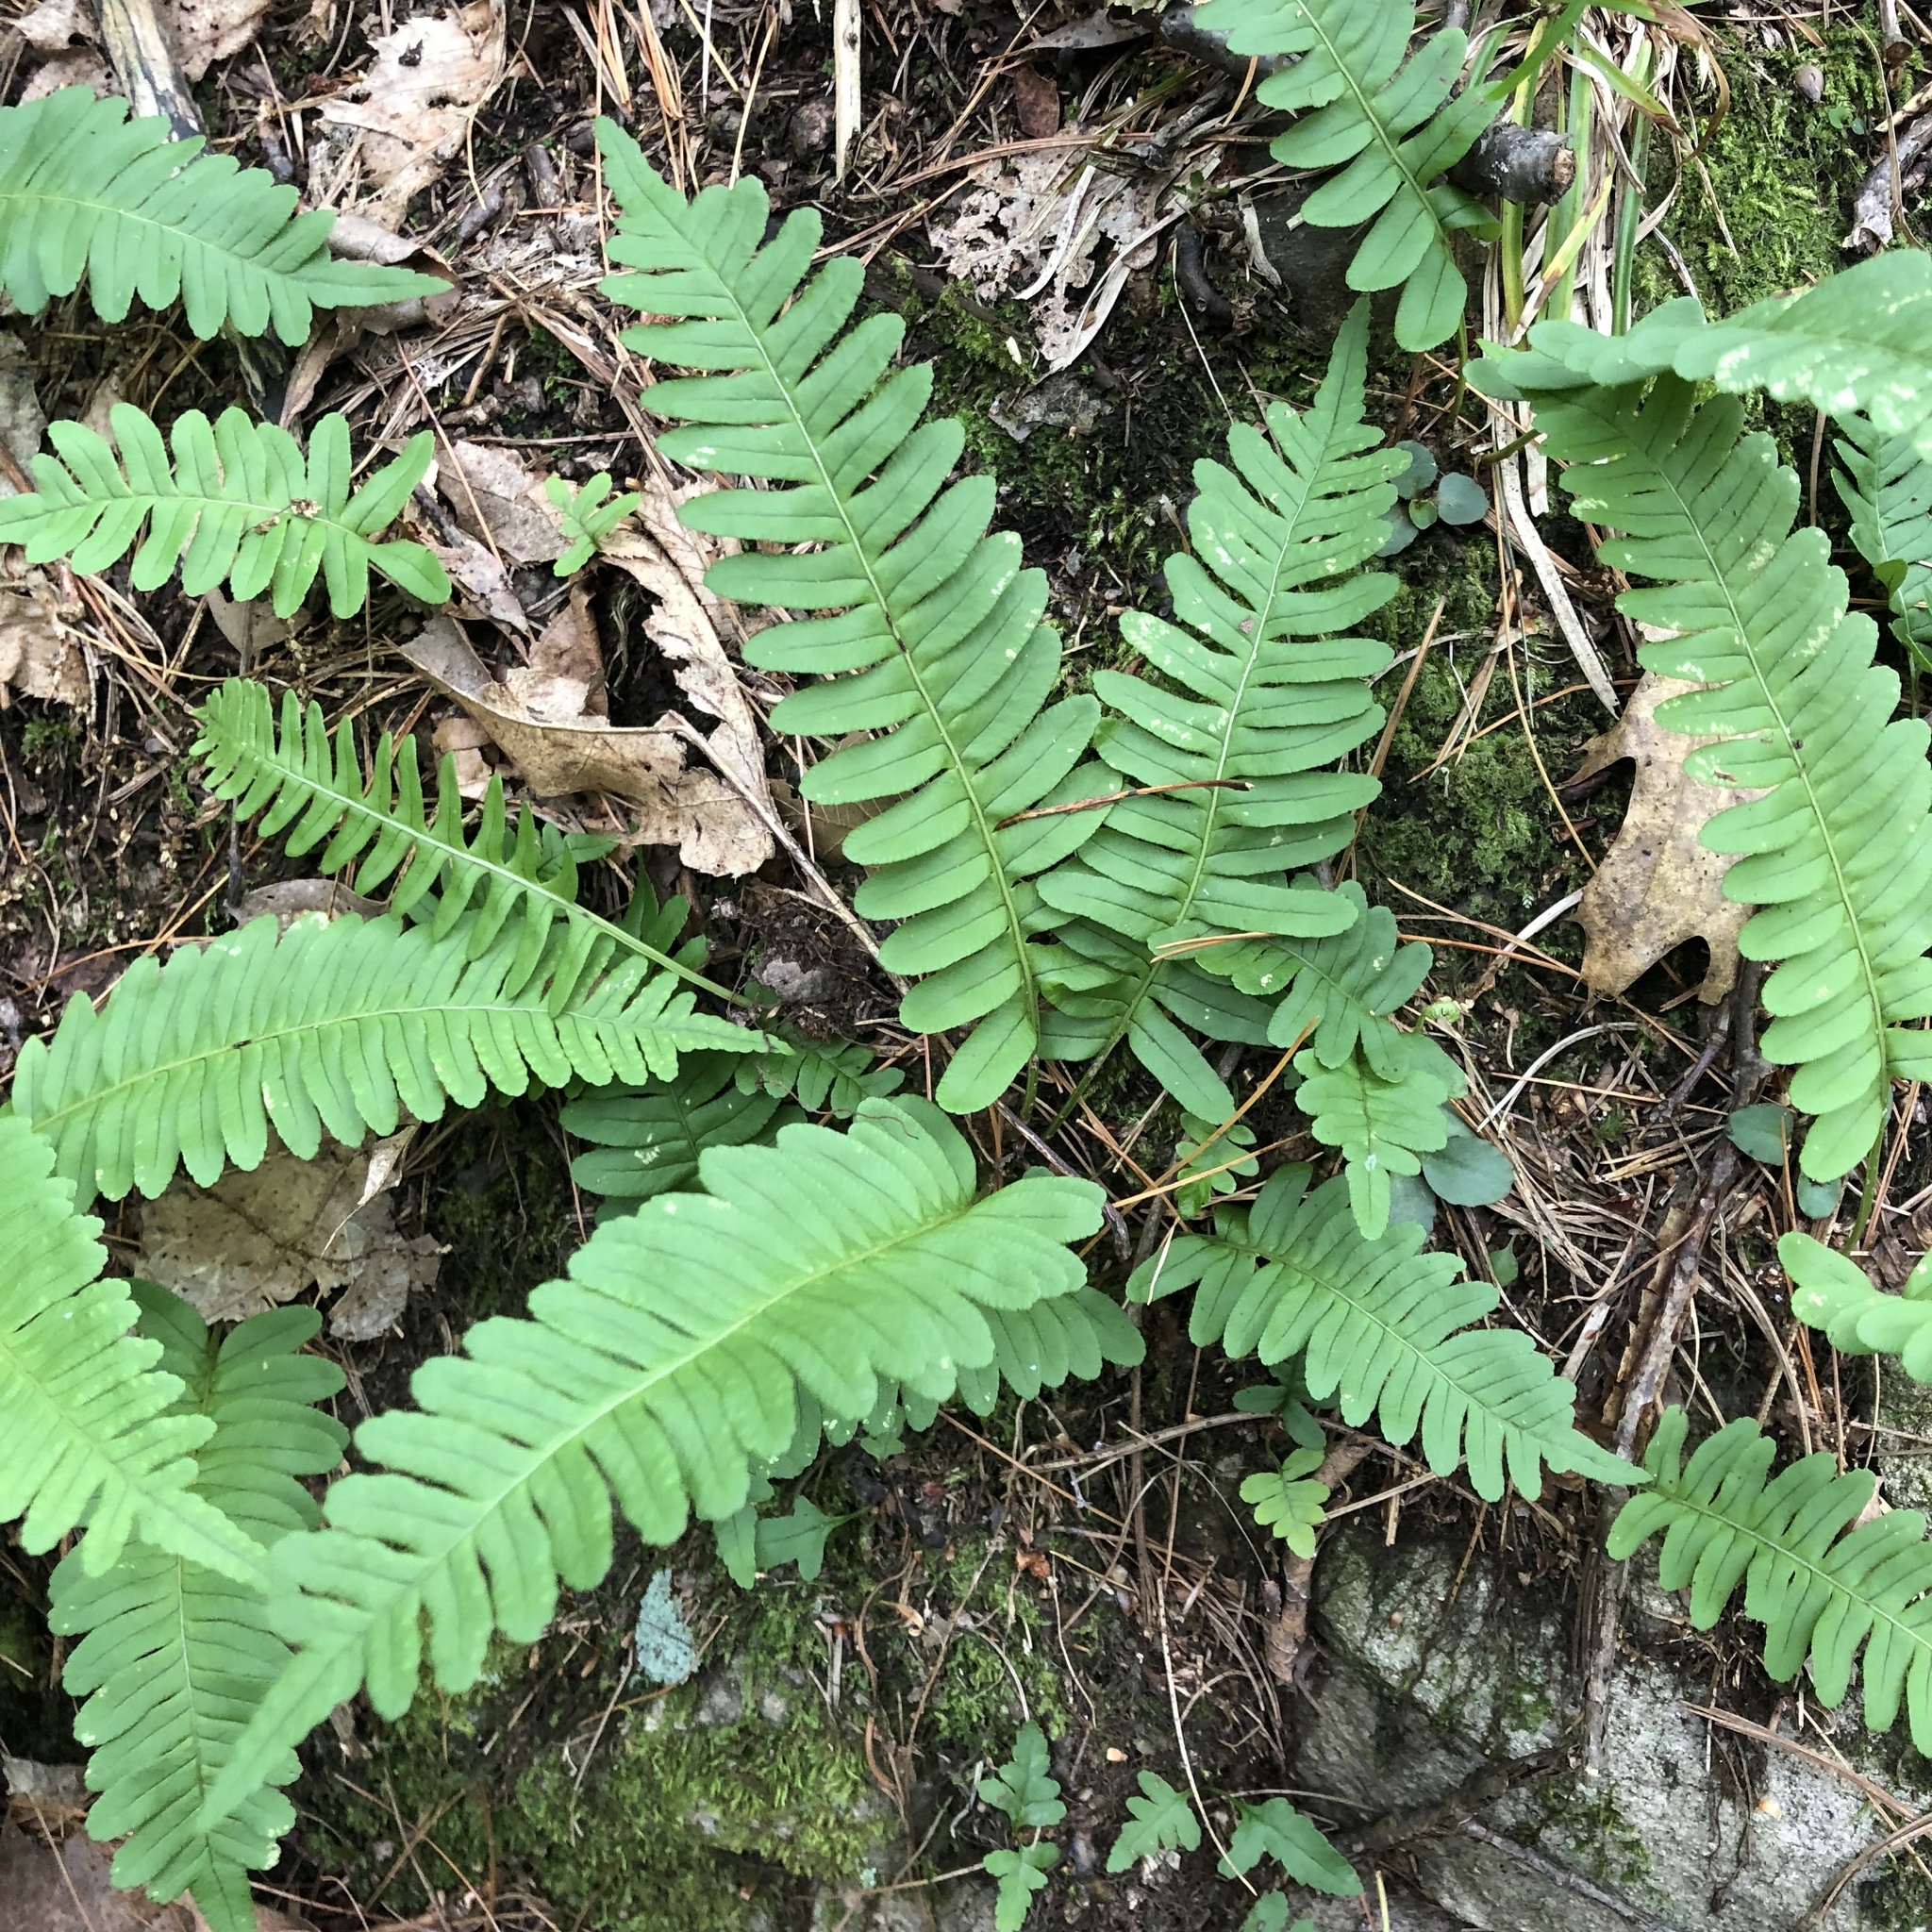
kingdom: Plantae
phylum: Tracheophyta
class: Polypodiopsida
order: Polypodiales
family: Polypodiaceae
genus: Polypodium
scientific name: Polypodium virginianum
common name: American wall fern
